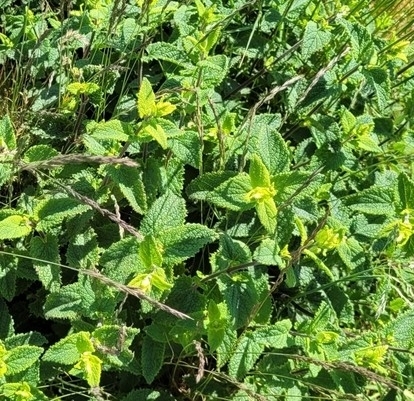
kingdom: Plantae
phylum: Tracheophyta
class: Magnoliopsida
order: Lamiales
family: Lamiaceae
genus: Teucrium
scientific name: Teucrium scorodonia
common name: Woodland germander
